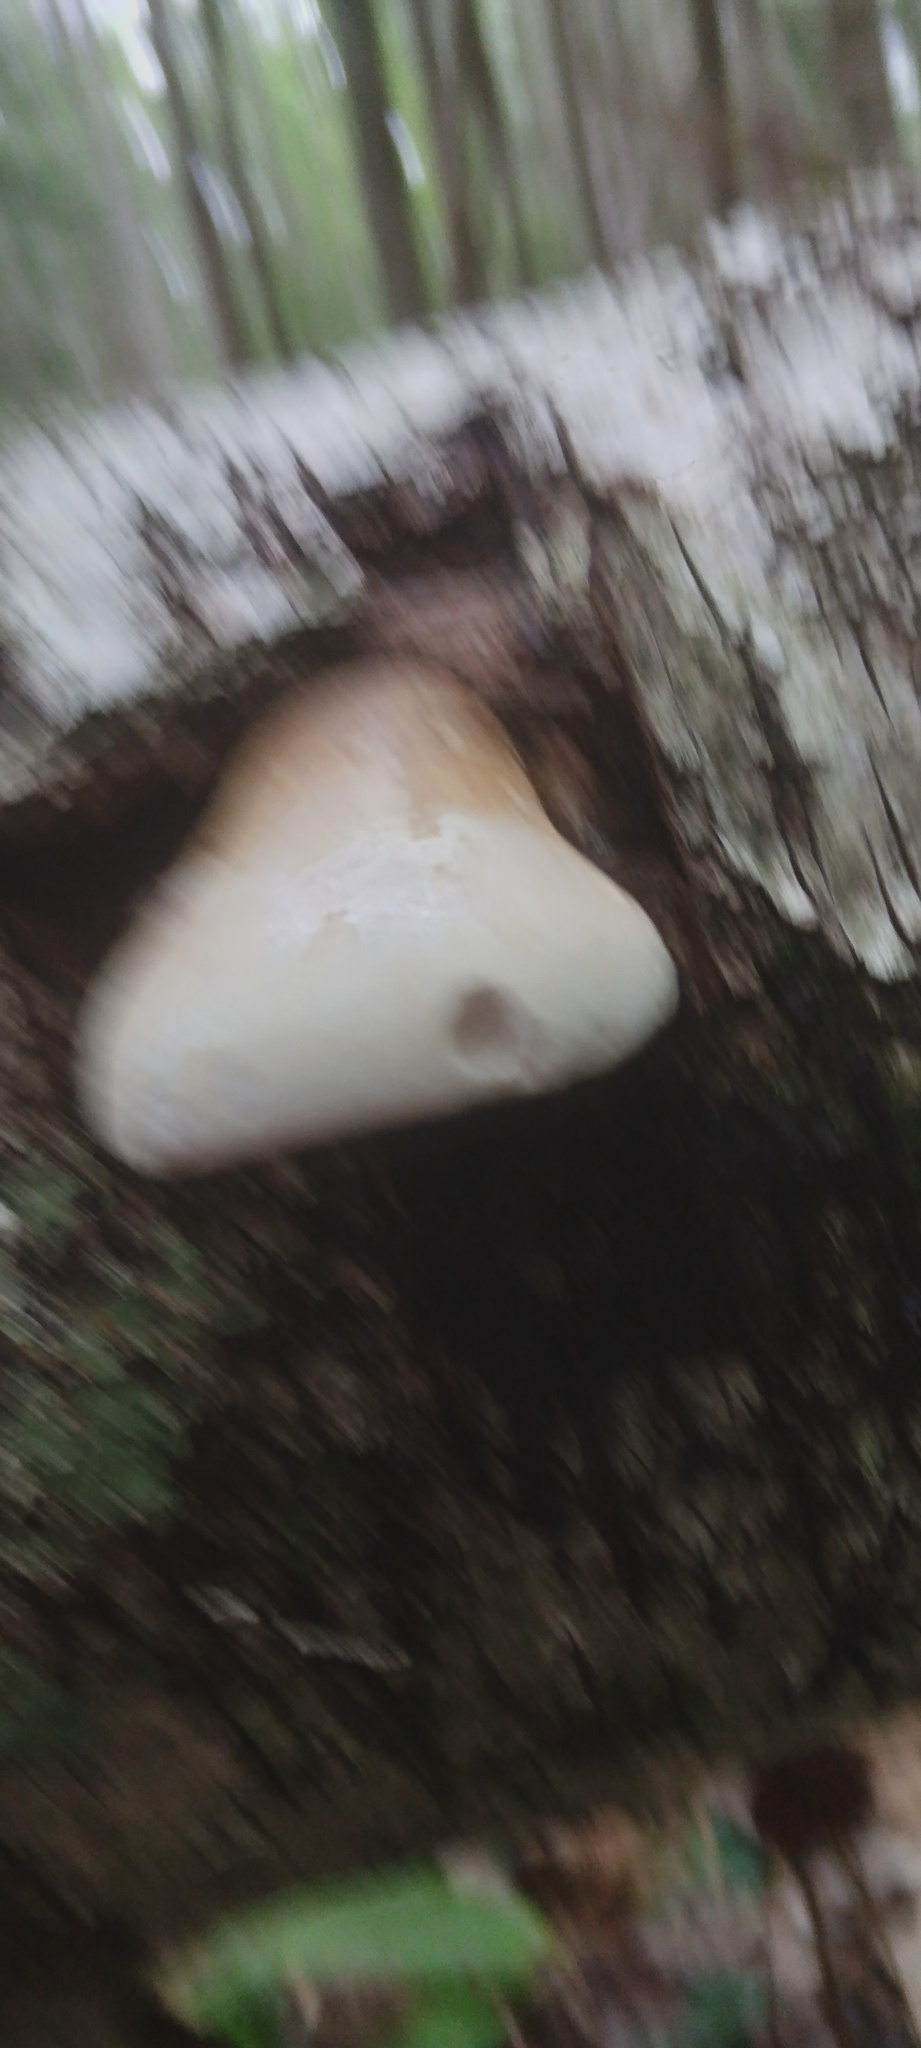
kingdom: Fungi
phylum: Basidiomycota
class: Agaricomycetes
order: Polyporales
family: Fomitopsidaceae
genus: Fomitopsis
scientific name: Fomitopsis betulina
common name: Birch polypore
